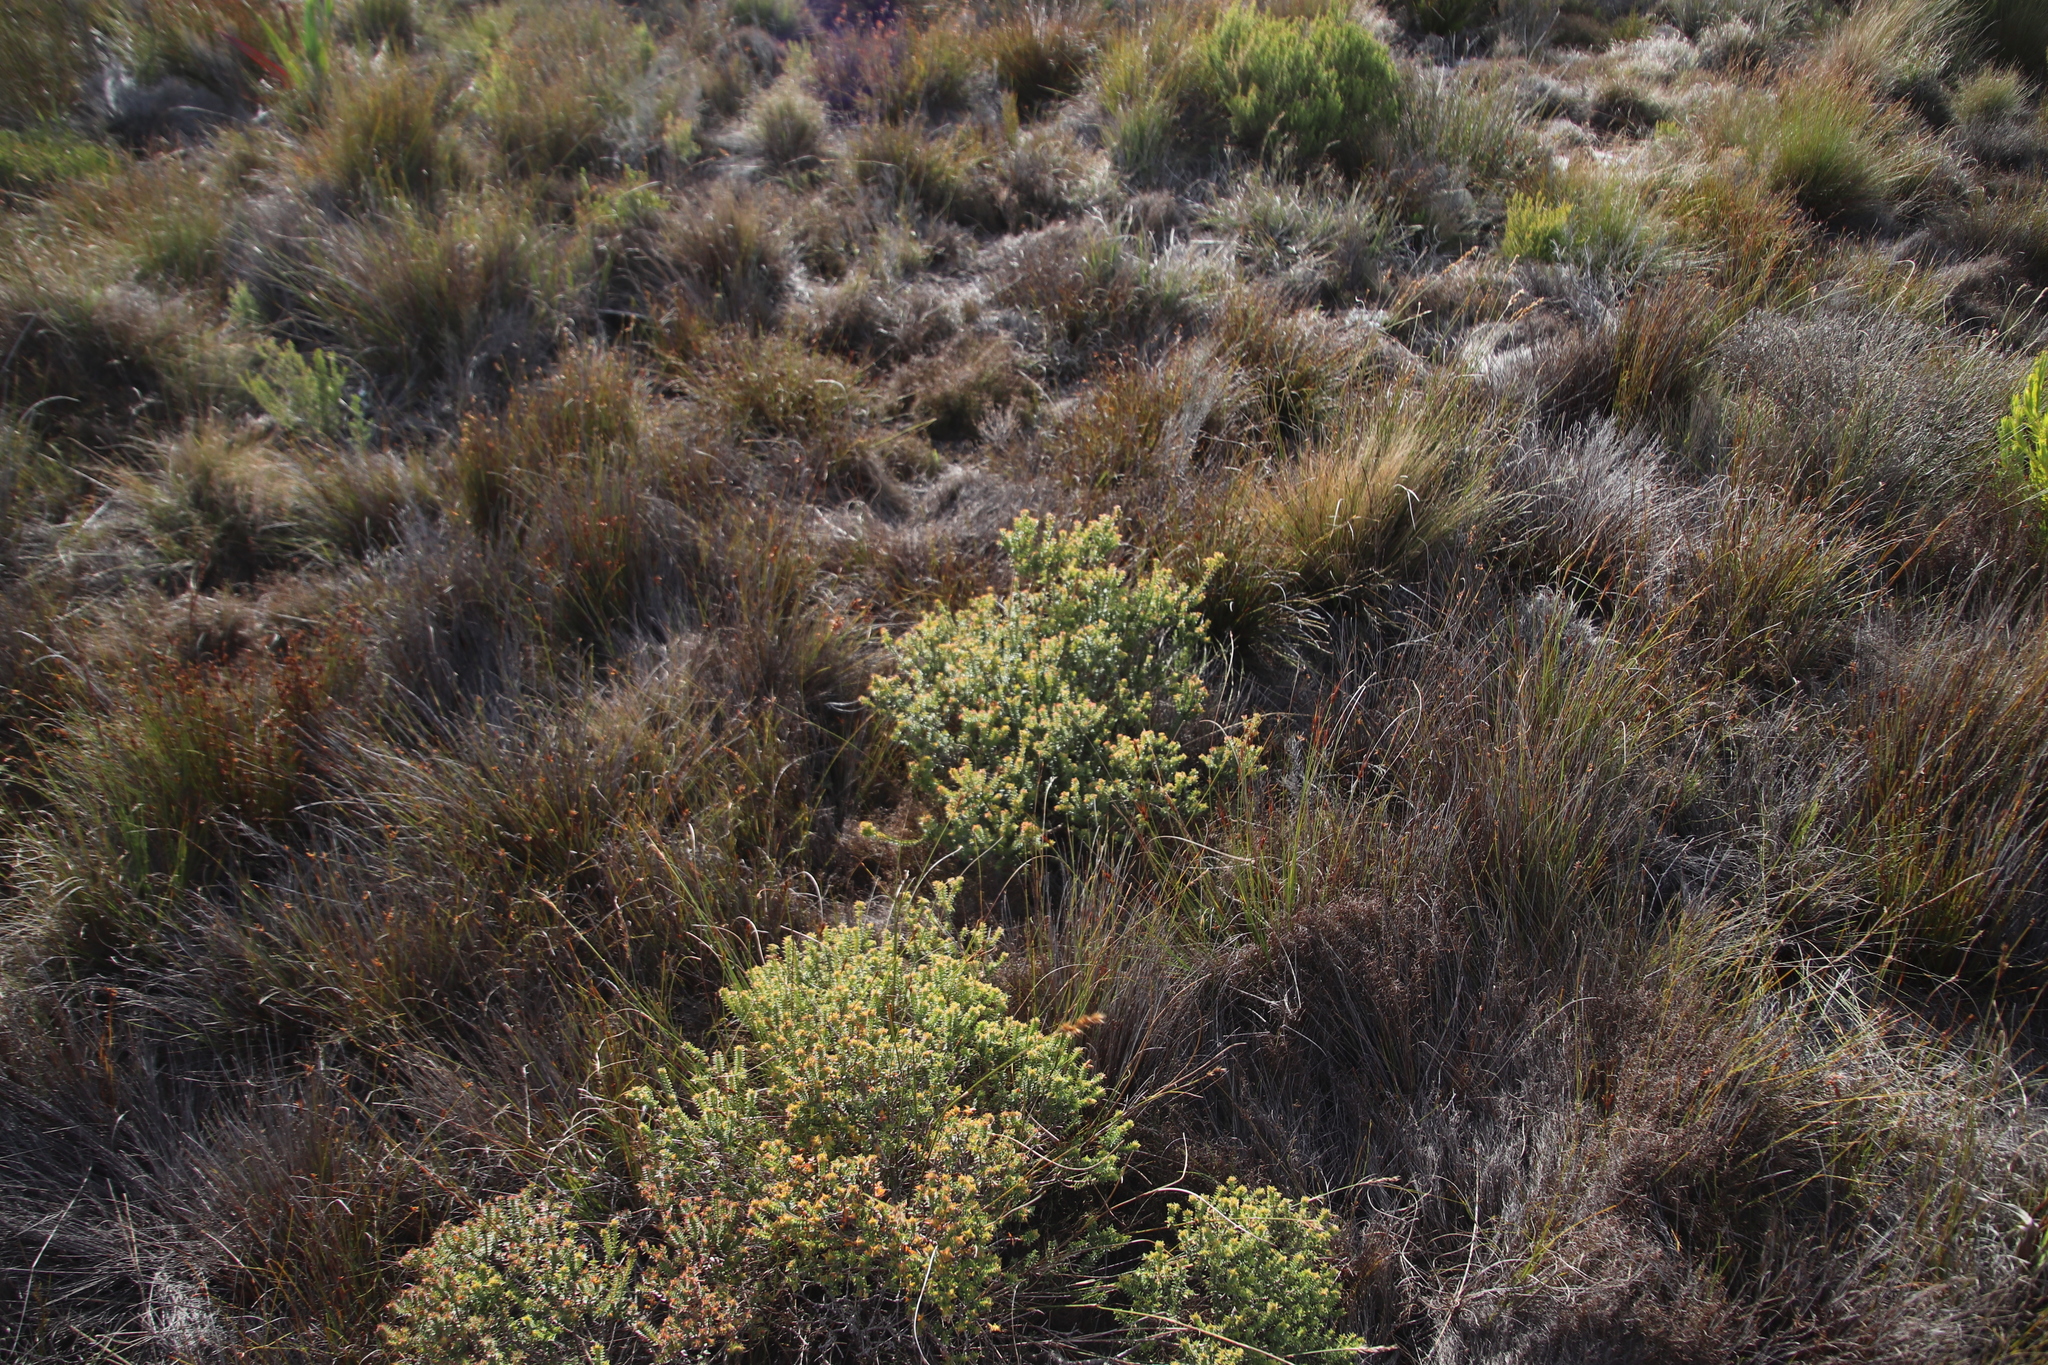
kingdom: Plantae
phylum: Tracheophyta
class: Magnoliopsida
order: Myrtales
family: Penaeaceae
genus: Penaea
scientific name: Penaea mucronata
